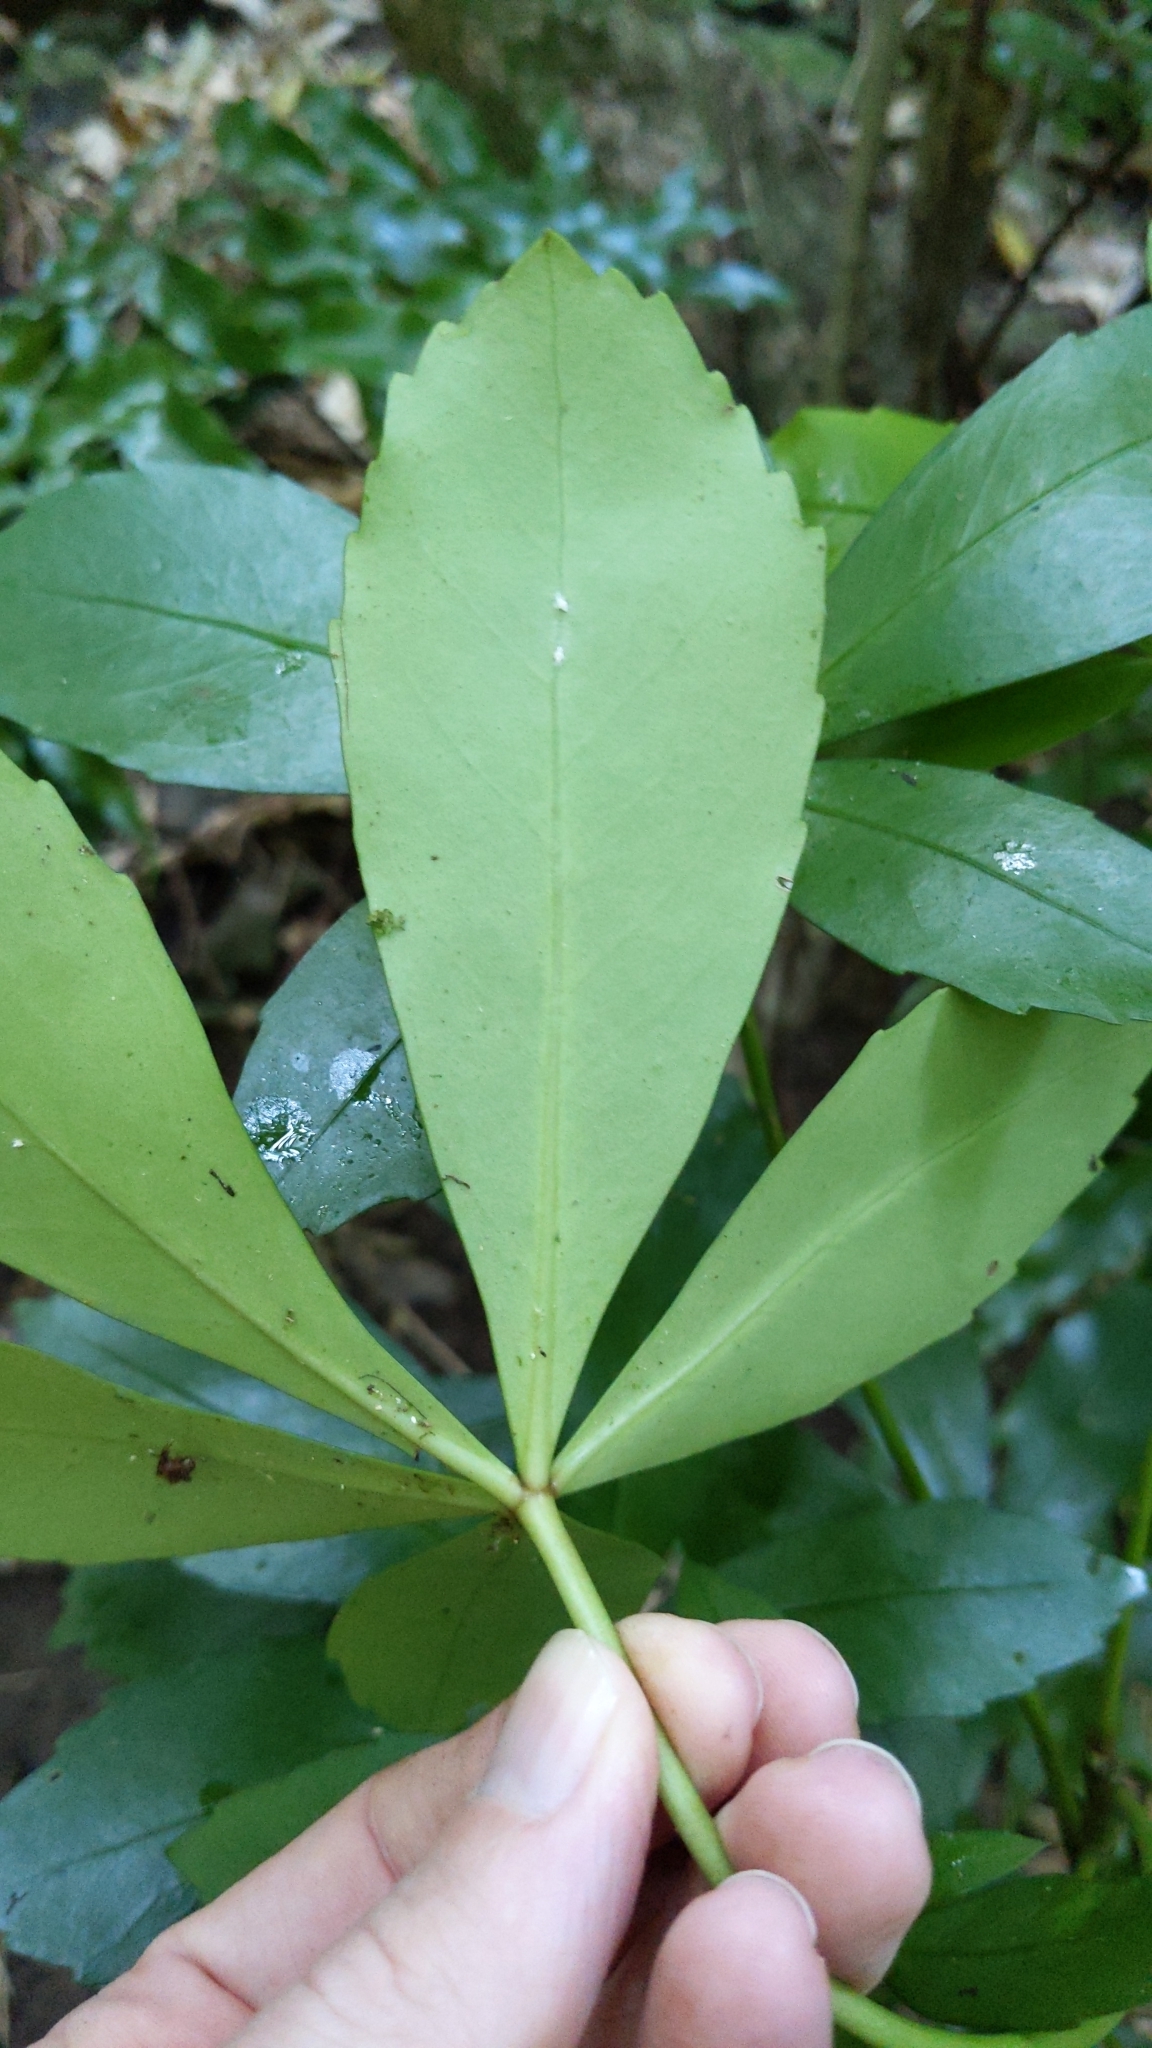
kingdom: Plantae
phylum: Tracheophyta
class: Magnoliopsida
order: Apiales
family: Araliaceae
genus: Pseudopanax
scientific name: Pseudopanax lessonii
